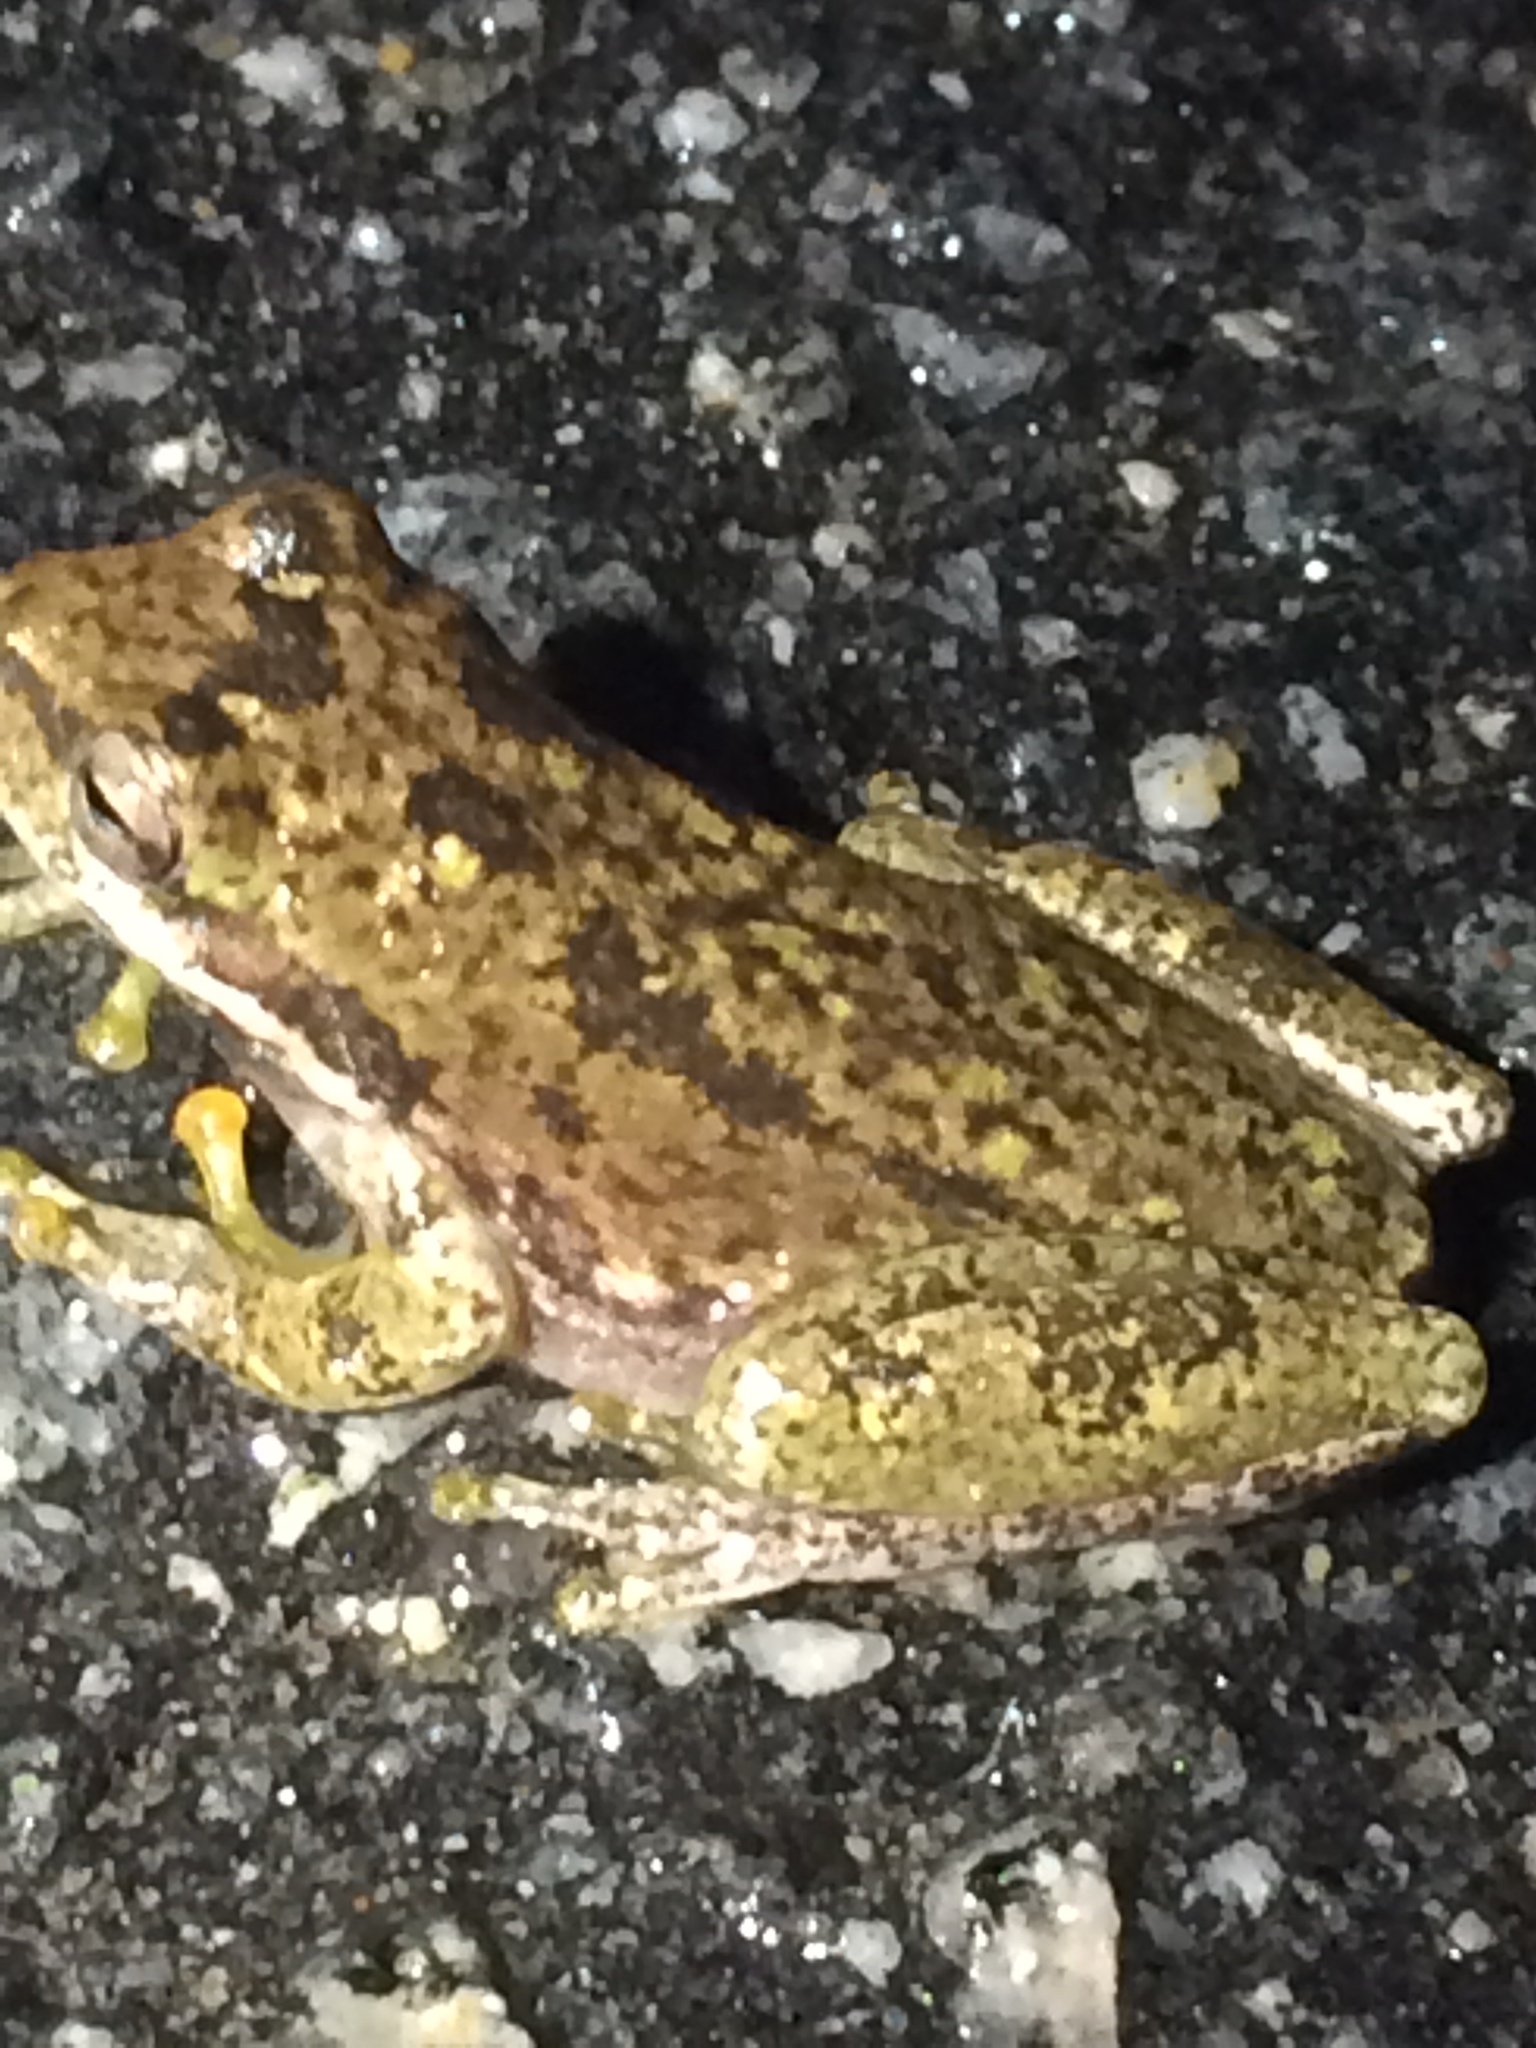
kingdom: Animalia
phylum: Chordata
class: Amphibia
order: Anura
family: Hylidae
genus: Dryophytes
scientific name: Dryophytes squirellus
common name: Squirrel treefrog
